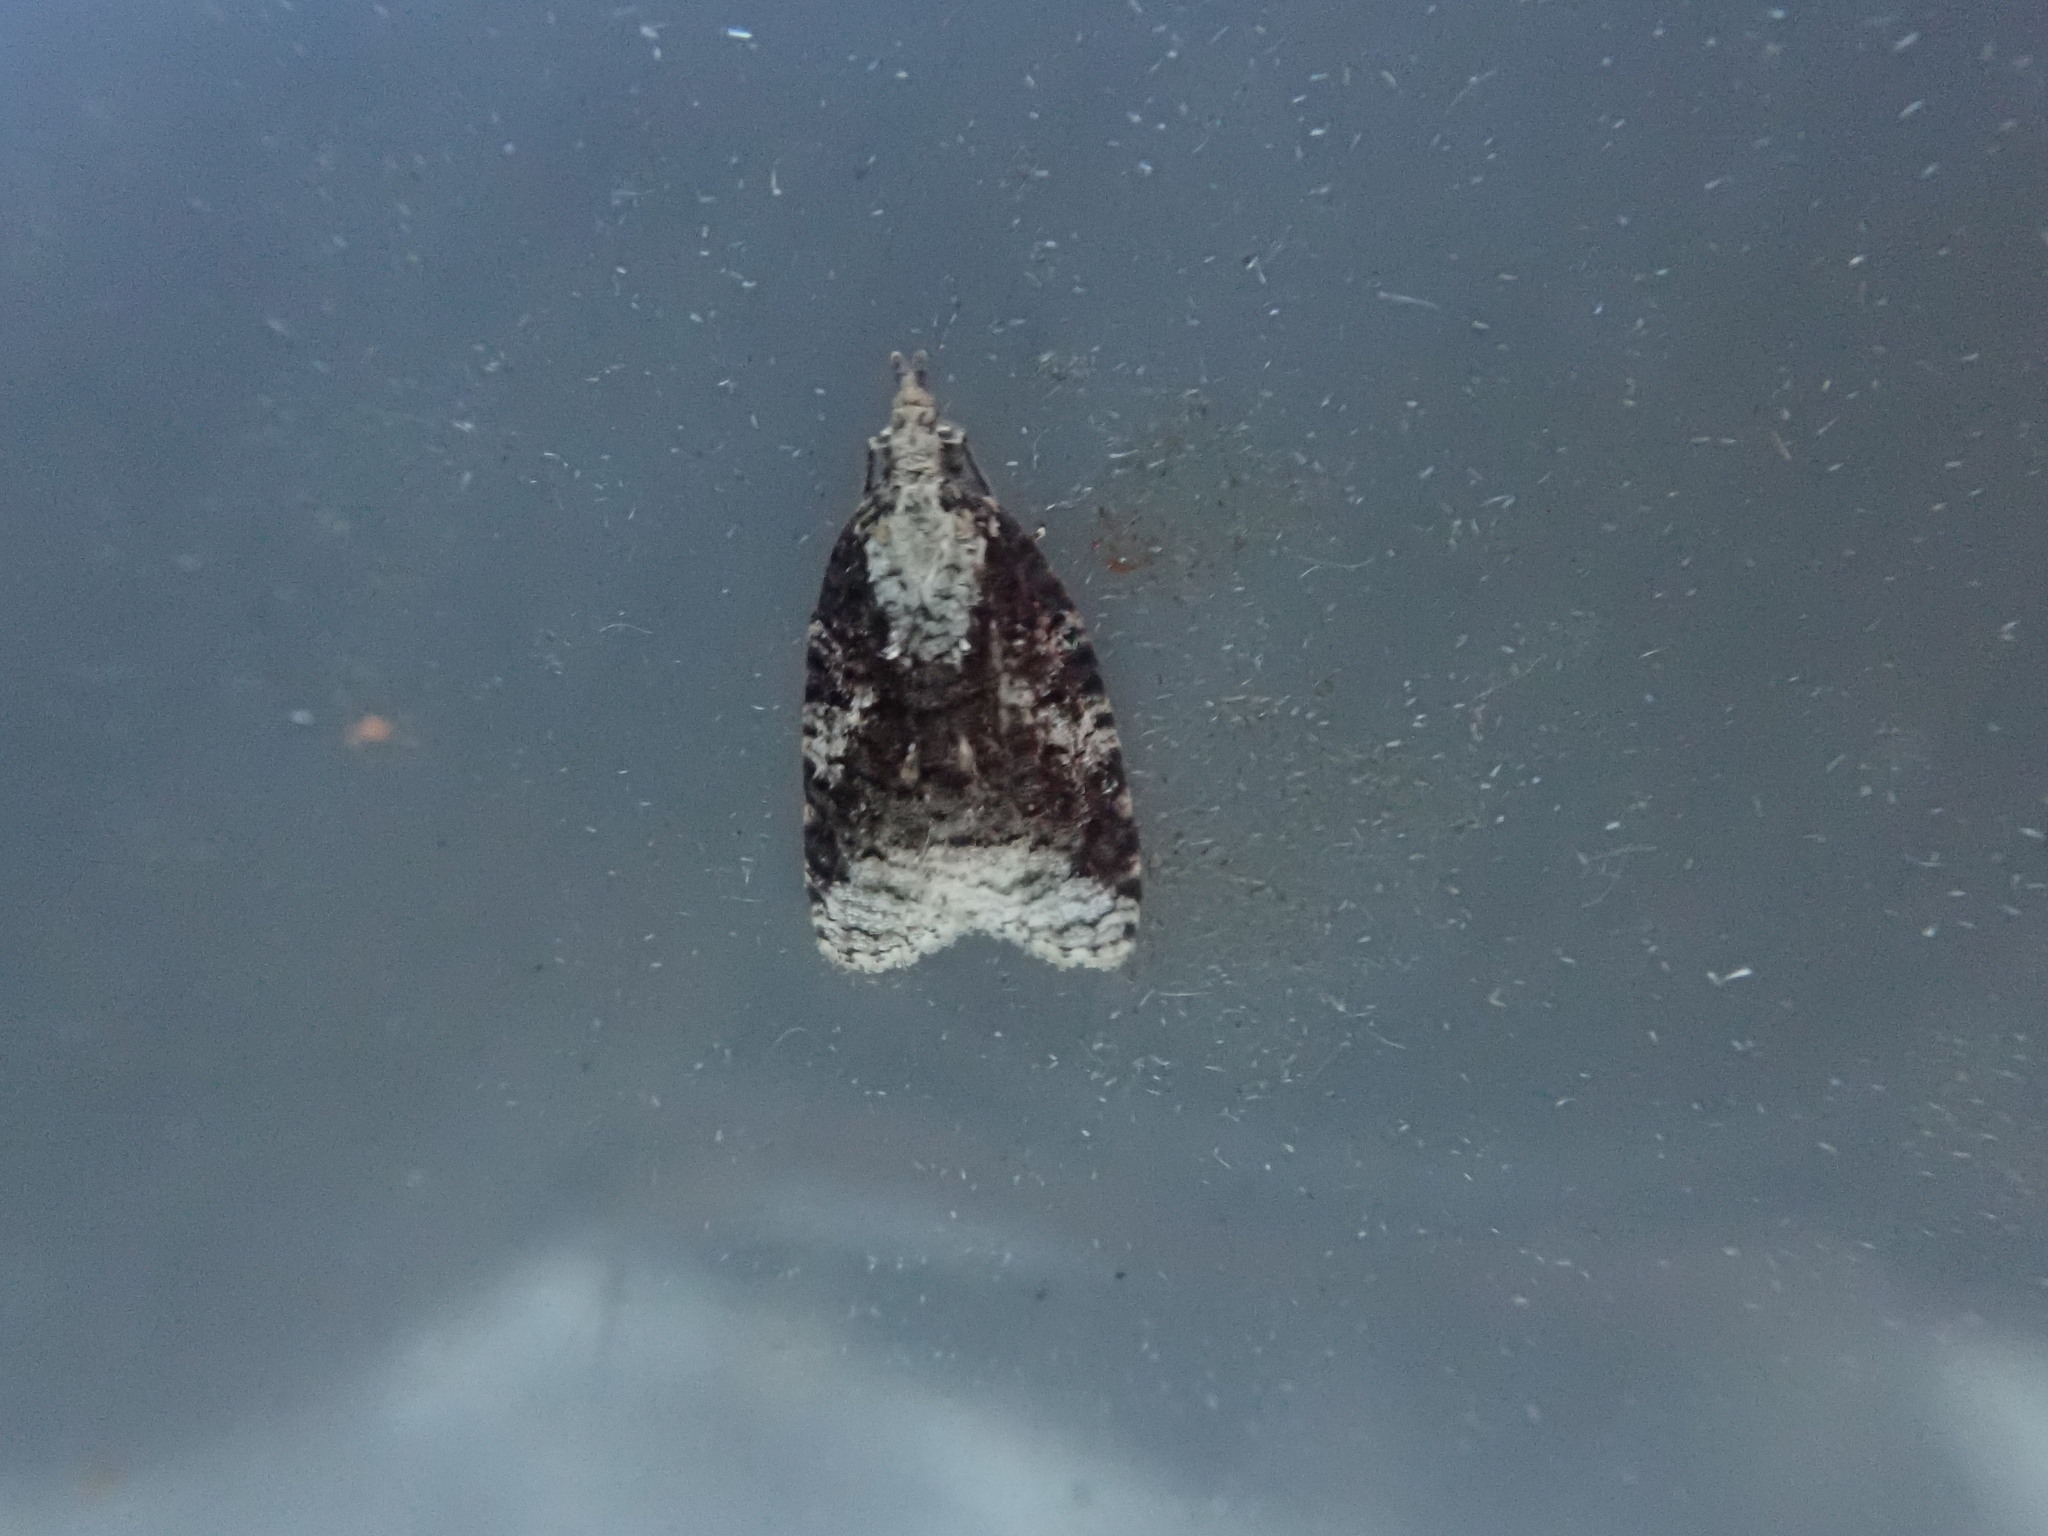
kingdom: Animalia
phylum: Arthropoda
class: Insecta
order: Lepidoptera
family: Tortricidae
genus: Platynota
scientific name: Platynota exasperatana
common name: Exasperating platynota moth
